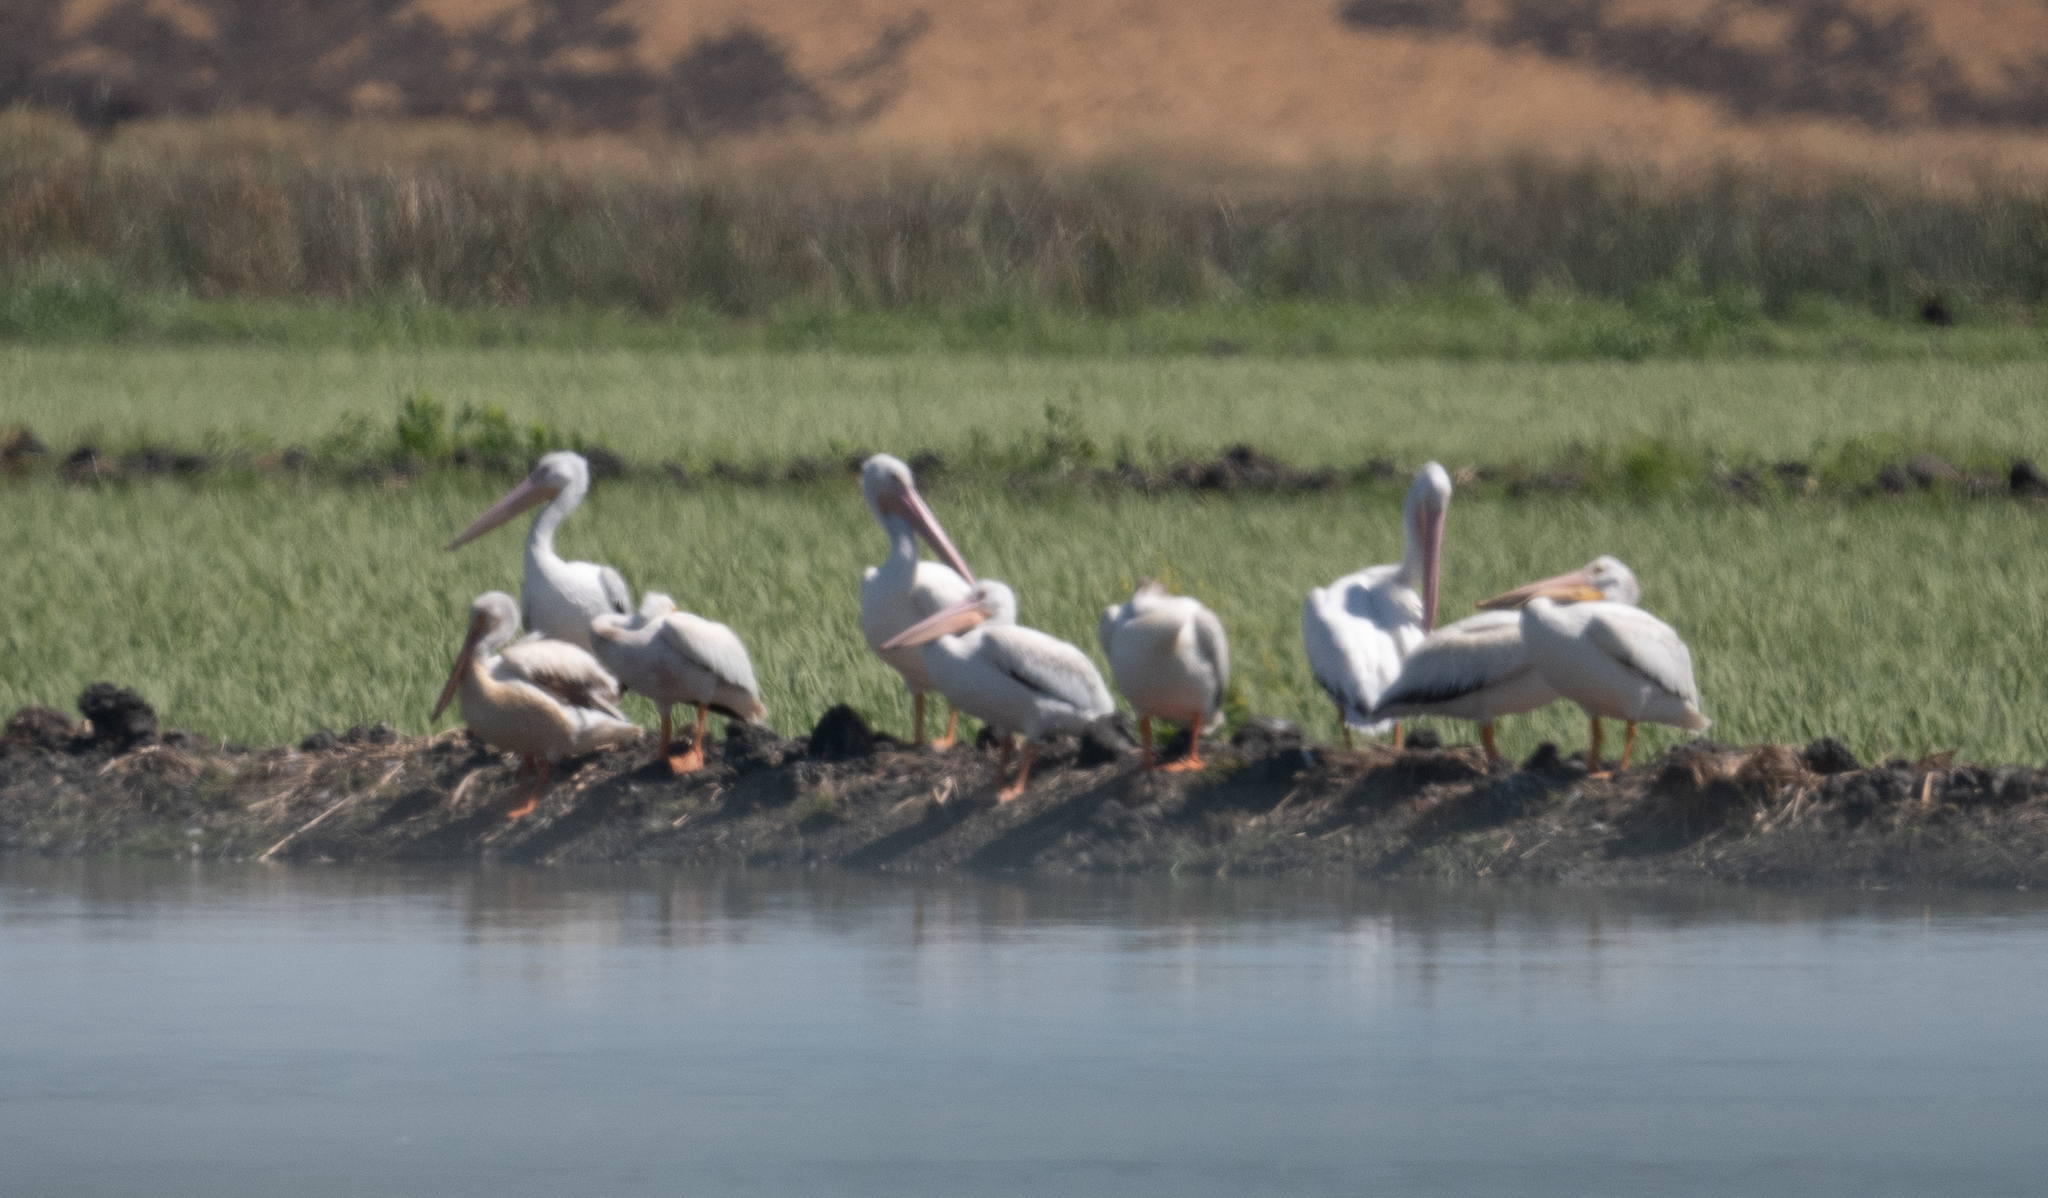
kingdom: Animalia
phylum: Chordata
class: Aves
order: Pelecaniformes
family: Pelecanidae
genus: Pelecanus
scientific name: Pelecanus erythrorhynchos
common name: American white pelican
